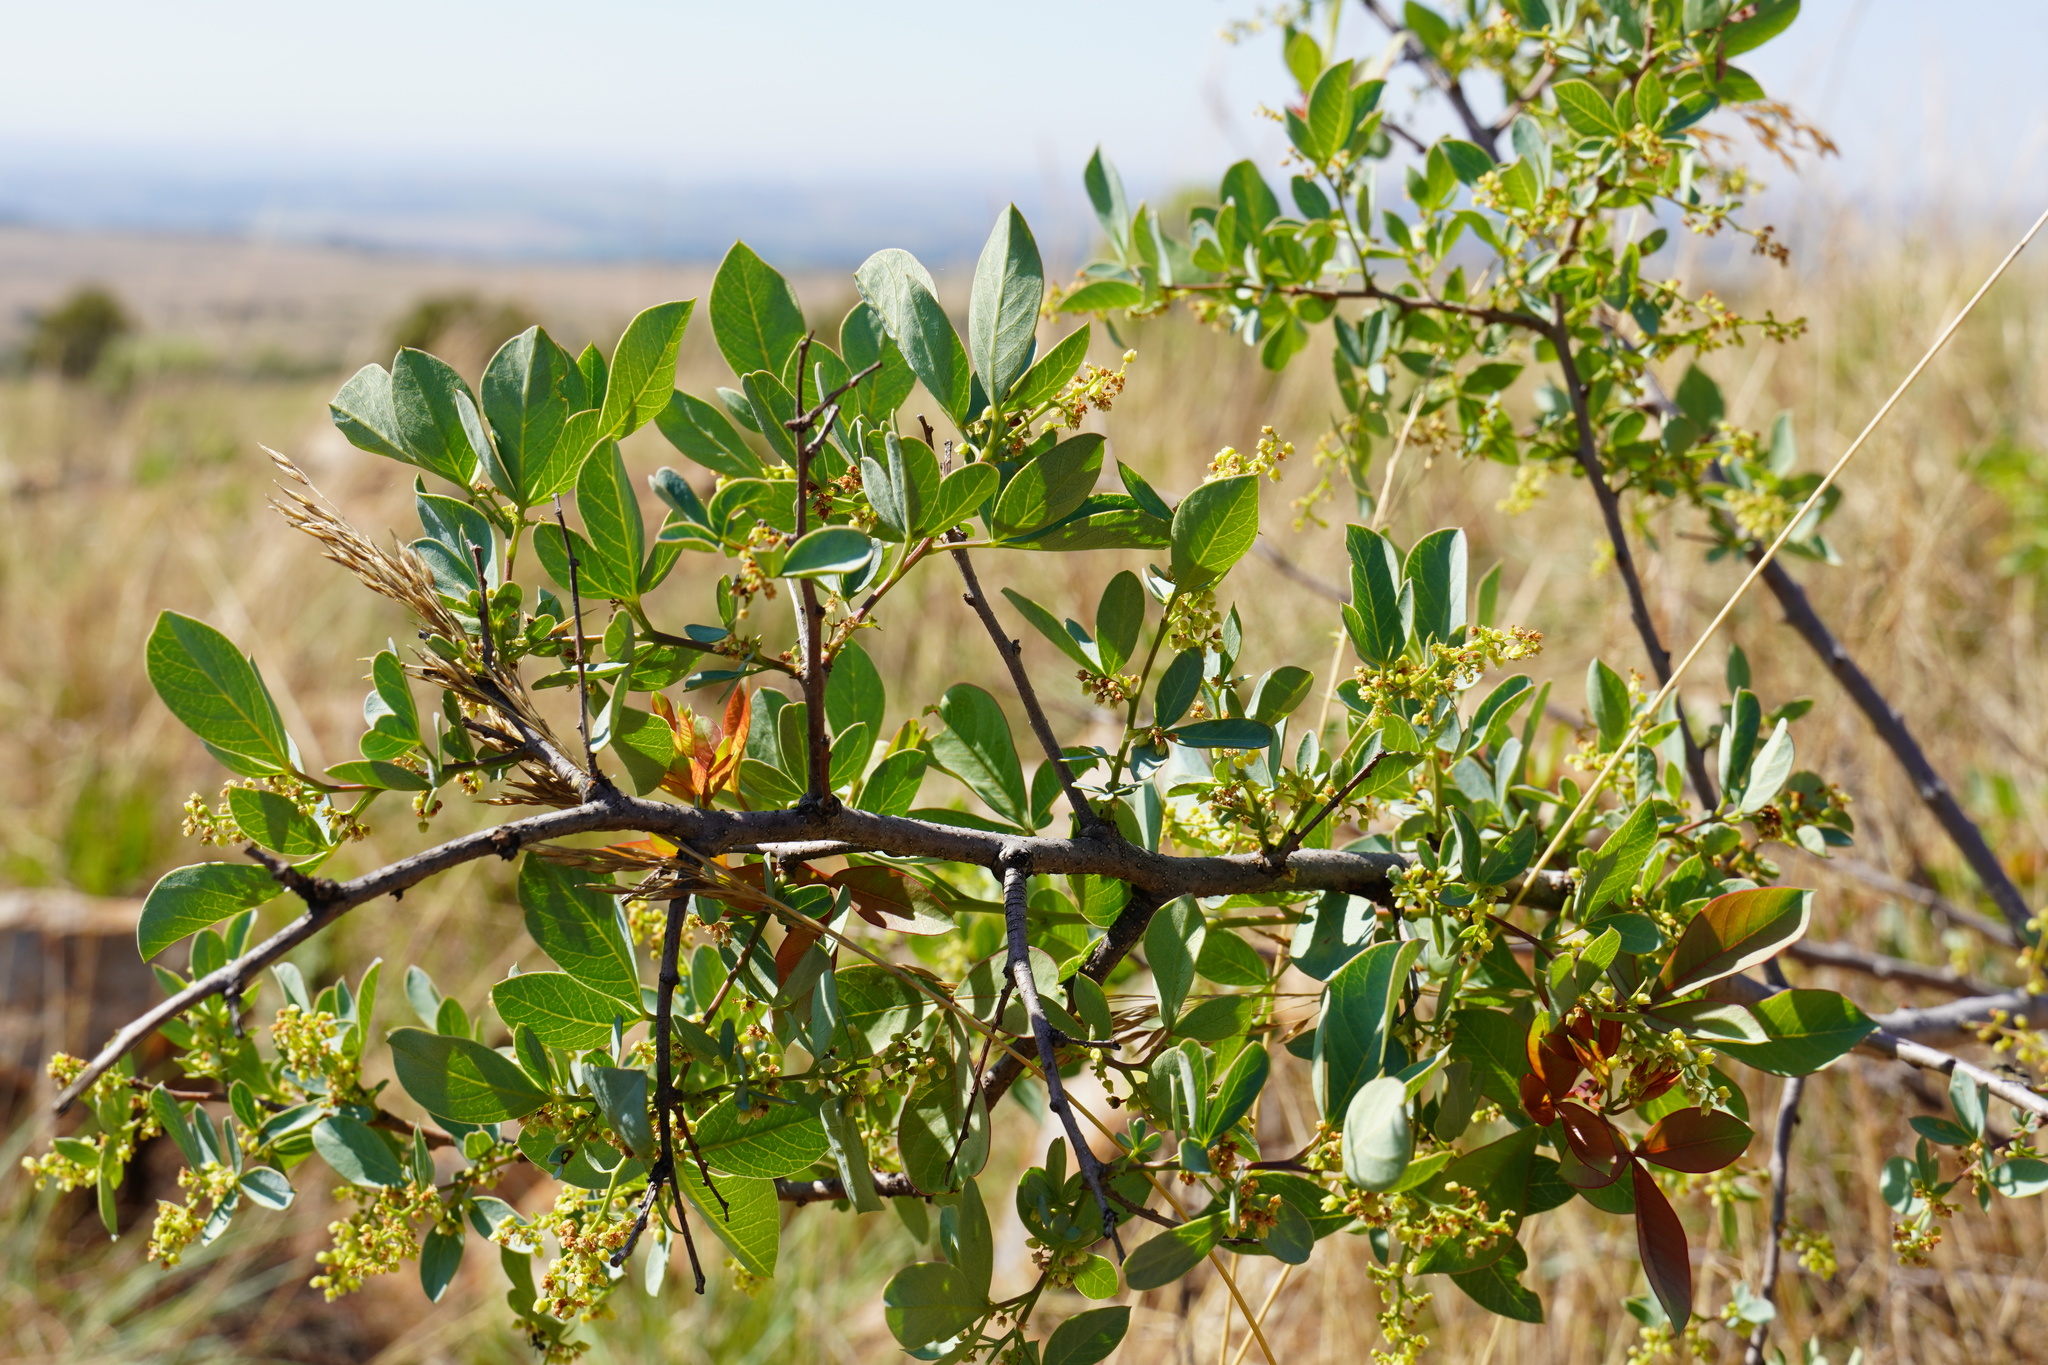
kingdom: Plantae
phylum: Tracheophyta
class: Magnoliopsida
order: Sapindales
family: Anacardiaceae
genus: Searsia
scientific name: Searsia zeyheri
